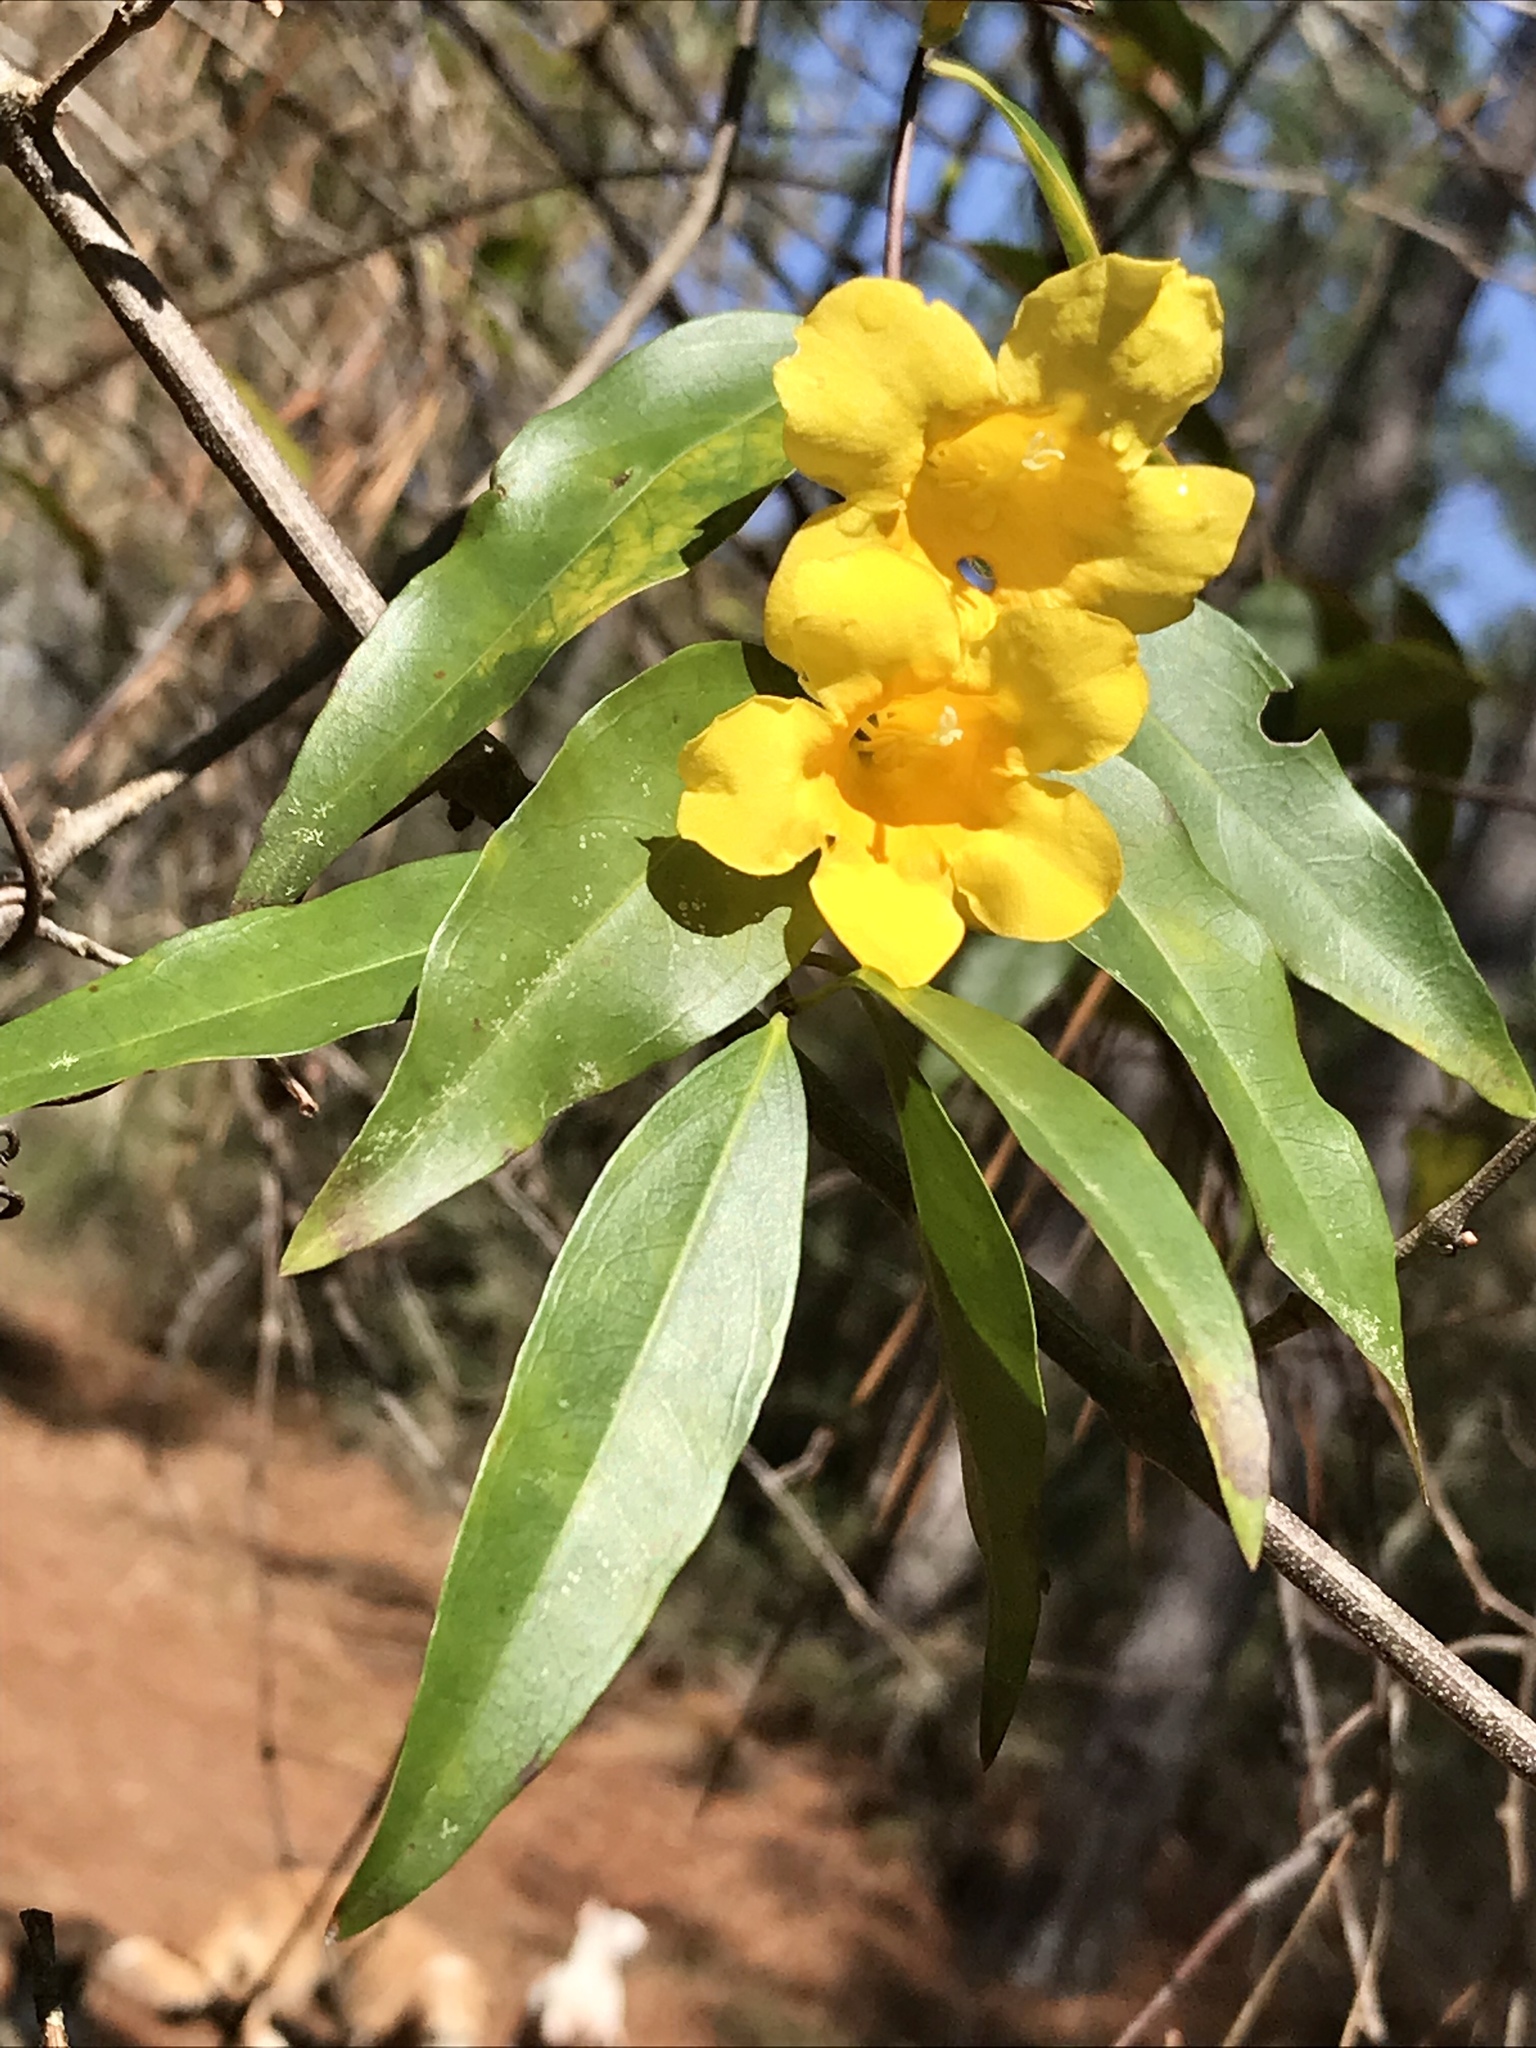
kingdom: Plantae
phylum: Tracheophyta
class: Magnoliopsida
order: Gentianales
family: Gelsemiaceae
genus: Gelsemium
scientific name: Gelsemium sempervirens
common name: Carolina-jasmine
